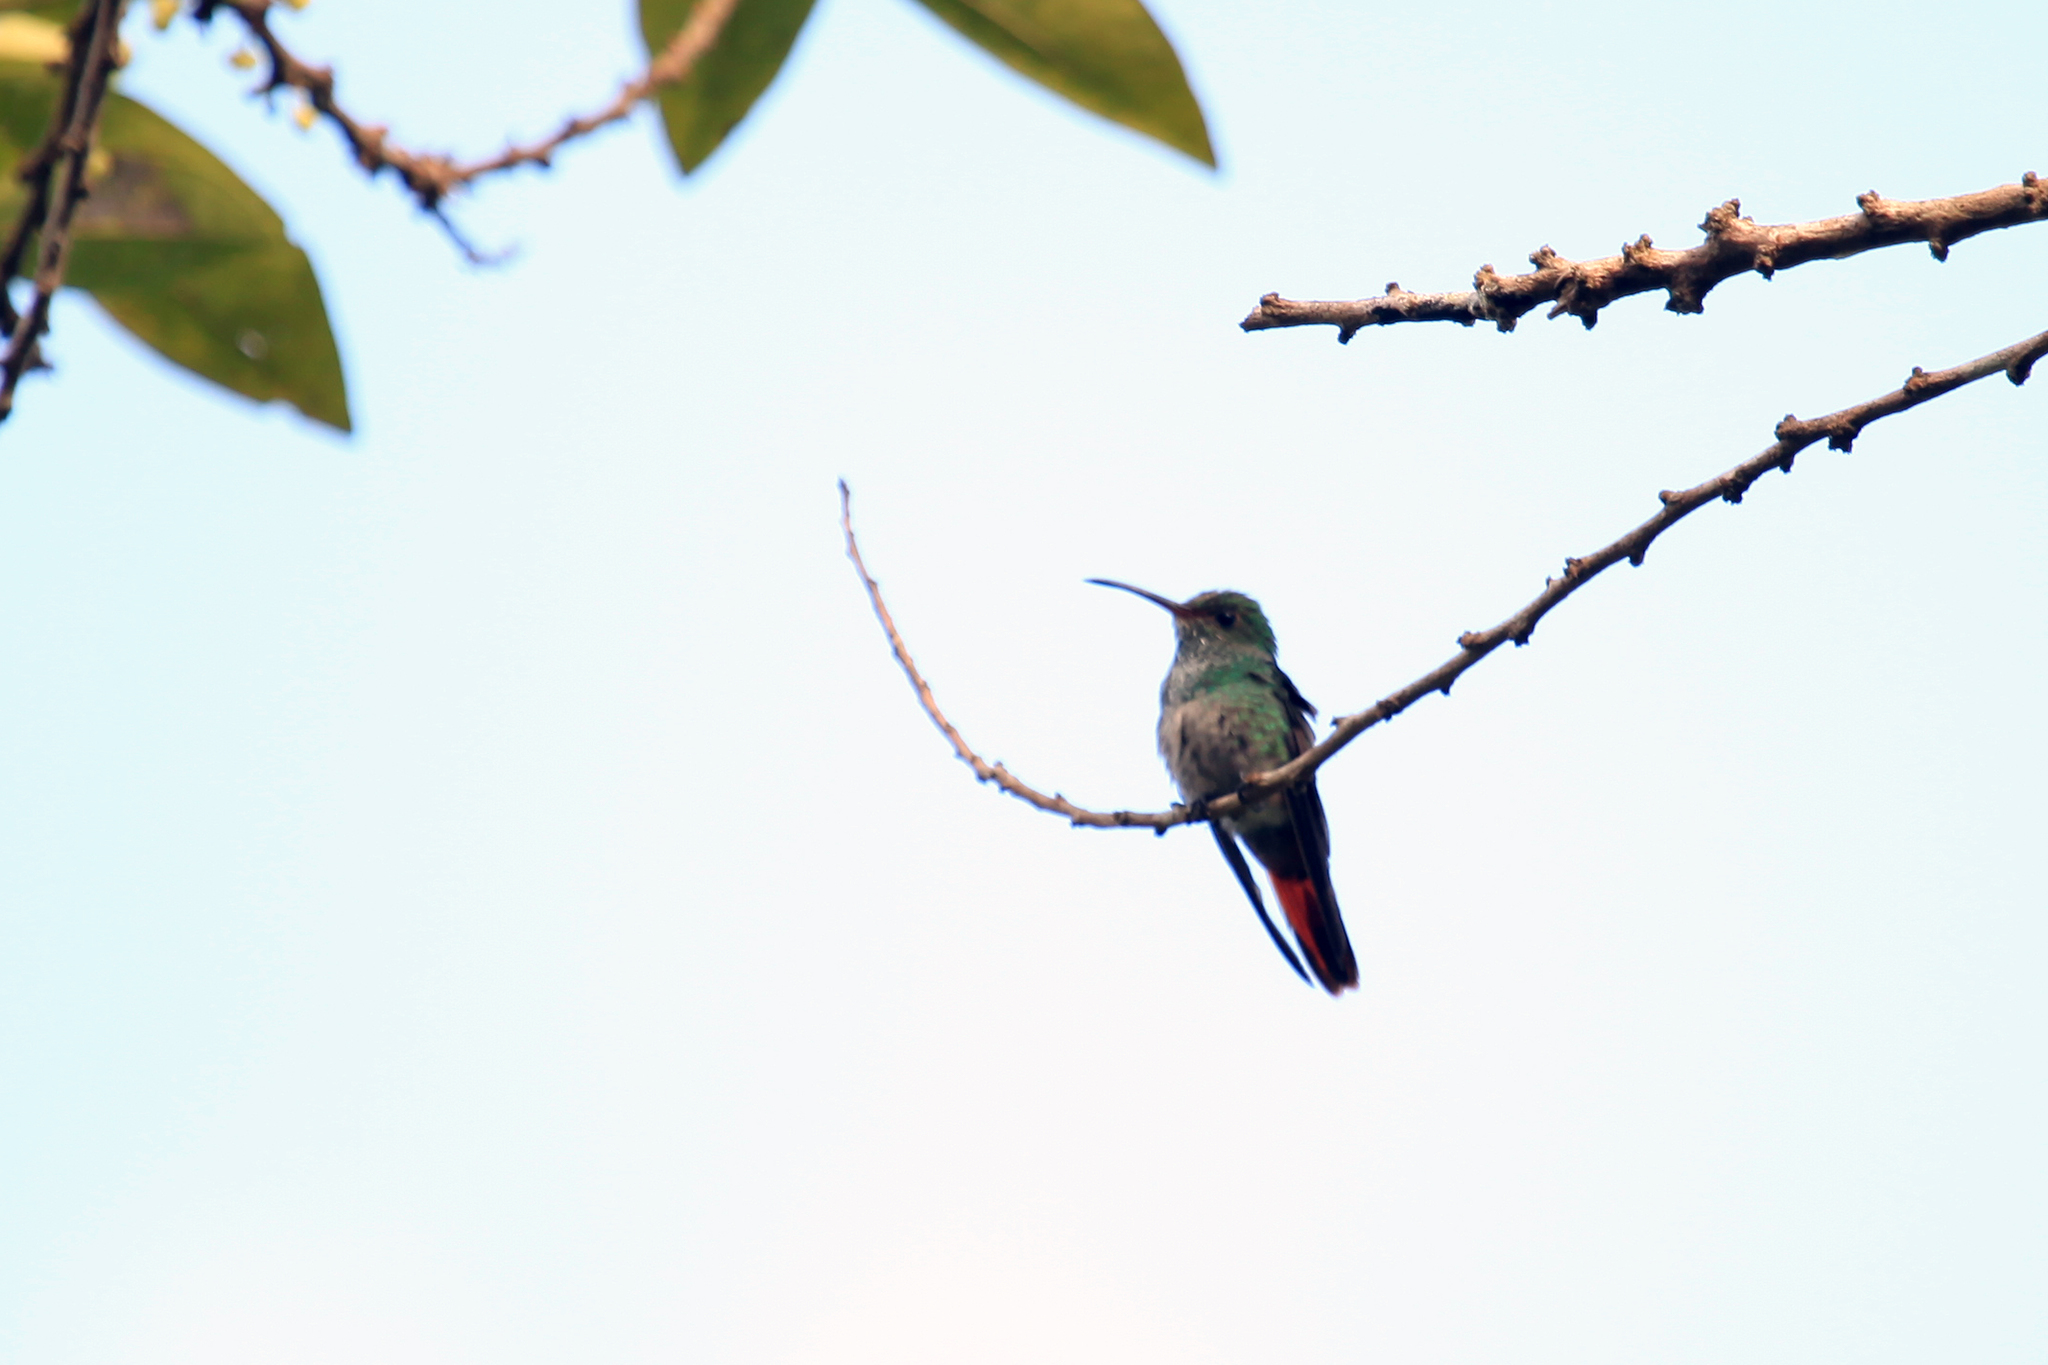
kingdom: Animalia
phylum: Chordata
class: Aves
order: Apodiformes
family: Trochilidae
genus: Amazilia
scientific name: Amazilia tzacatl
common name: Rufous-tailed hummingbird
